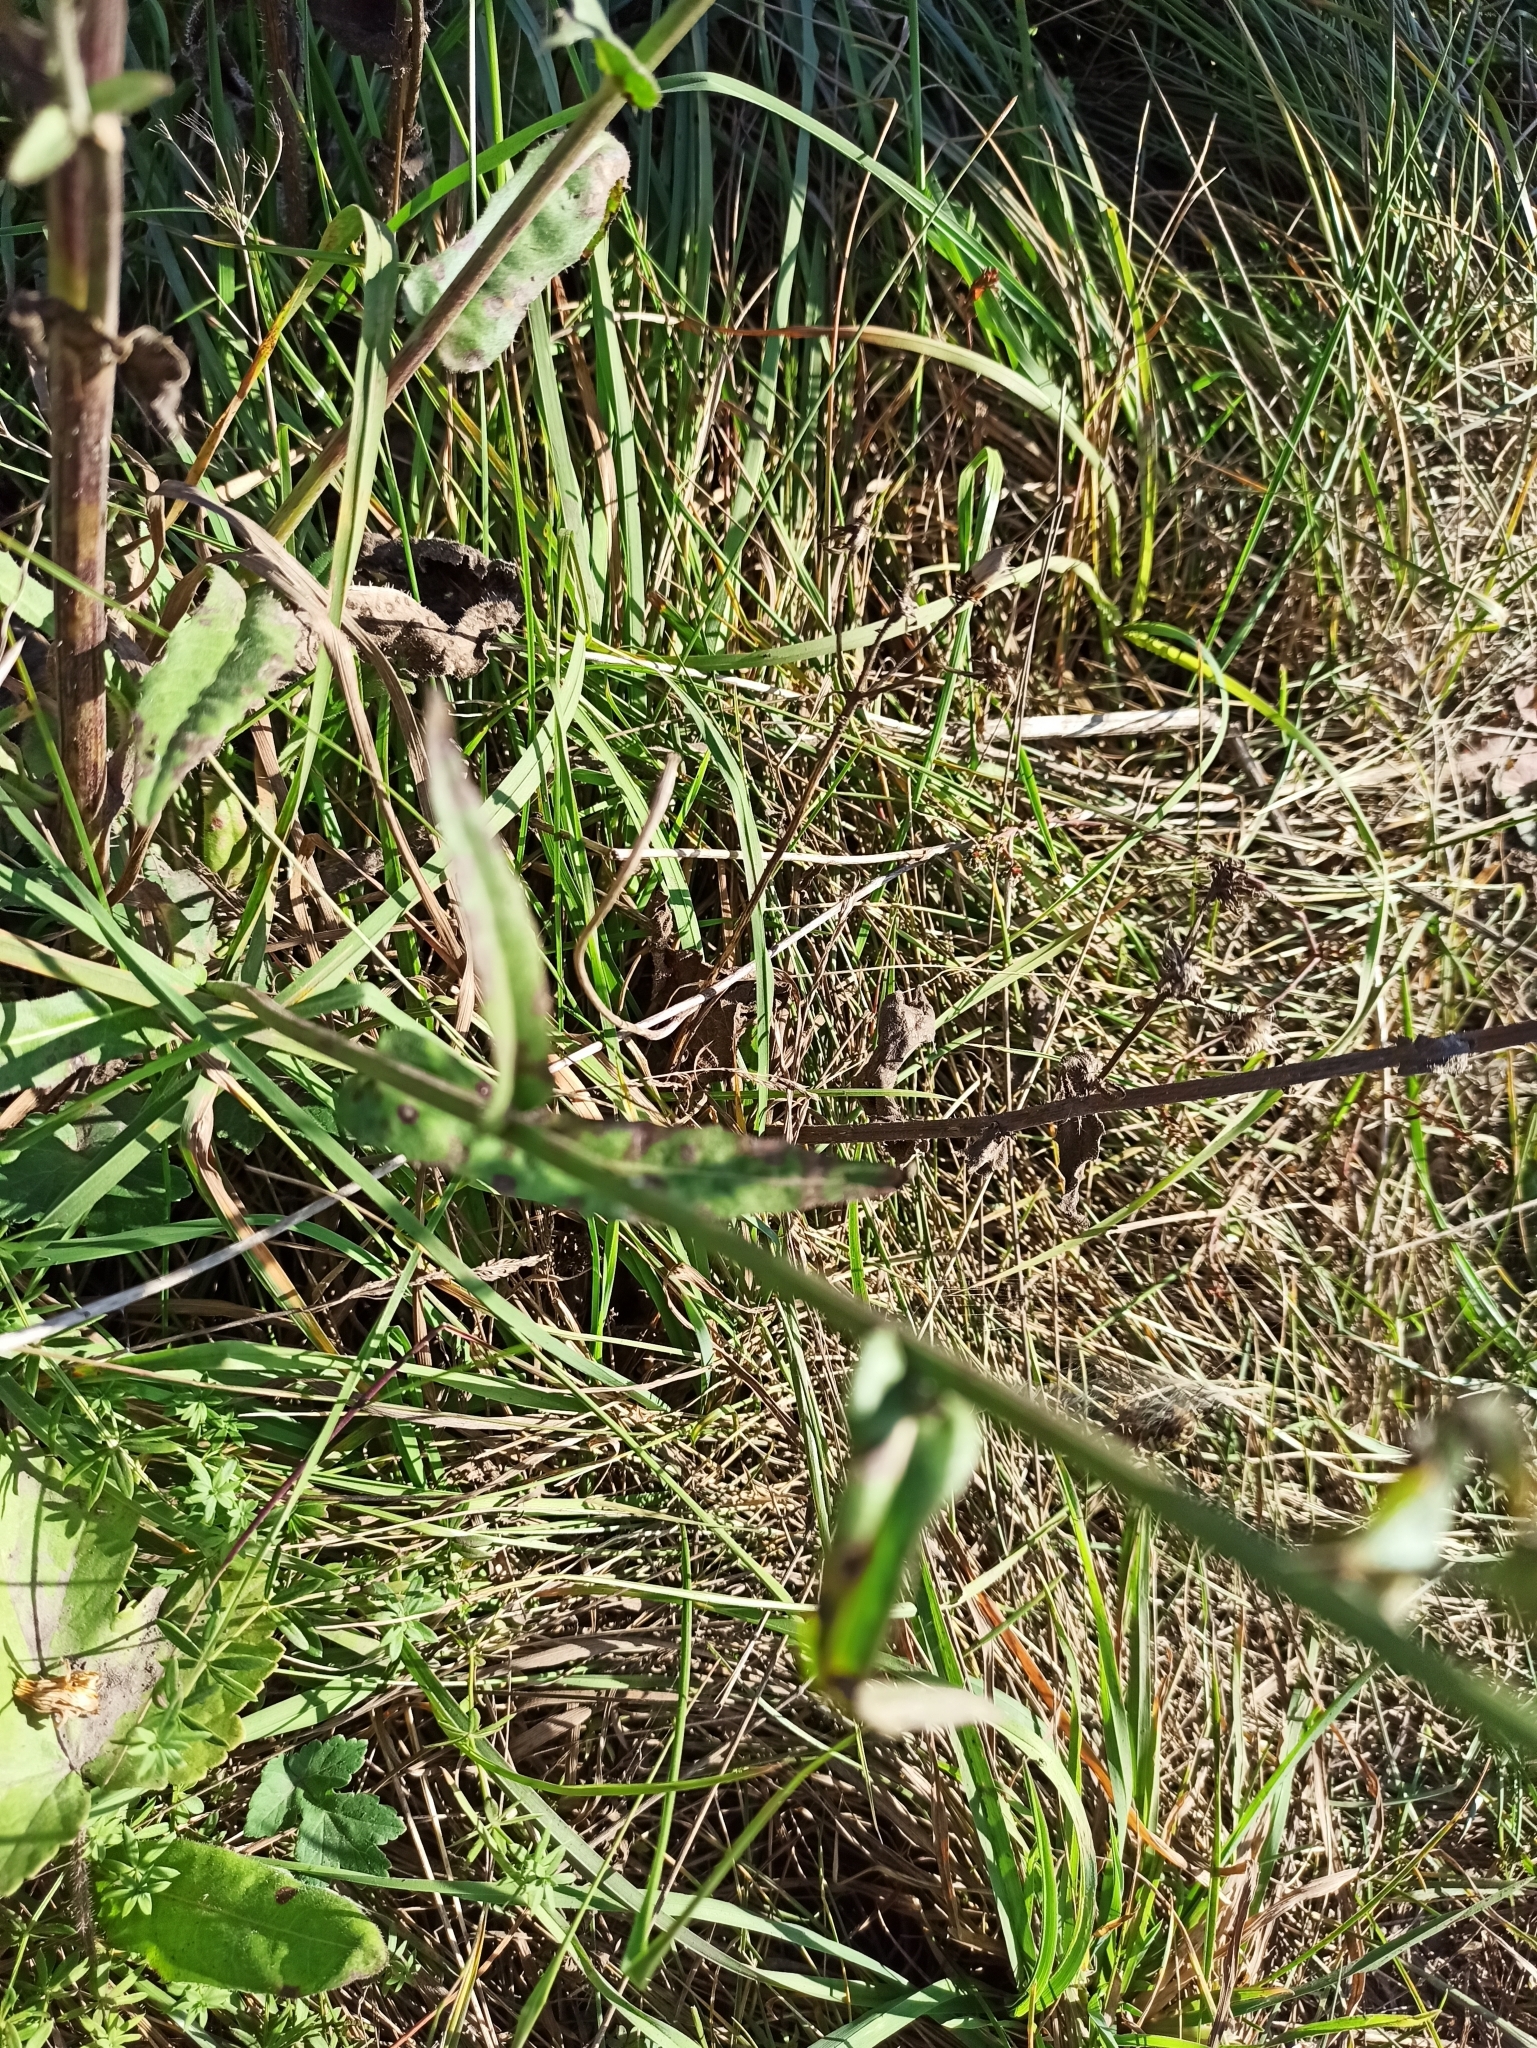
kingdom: Plantae
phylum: Tracheophyta
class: Magnoliopsida
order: Asterales
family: Asteraceae
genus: Picris
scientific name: Picris hieracioides
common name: Hawkweed oxtongue
